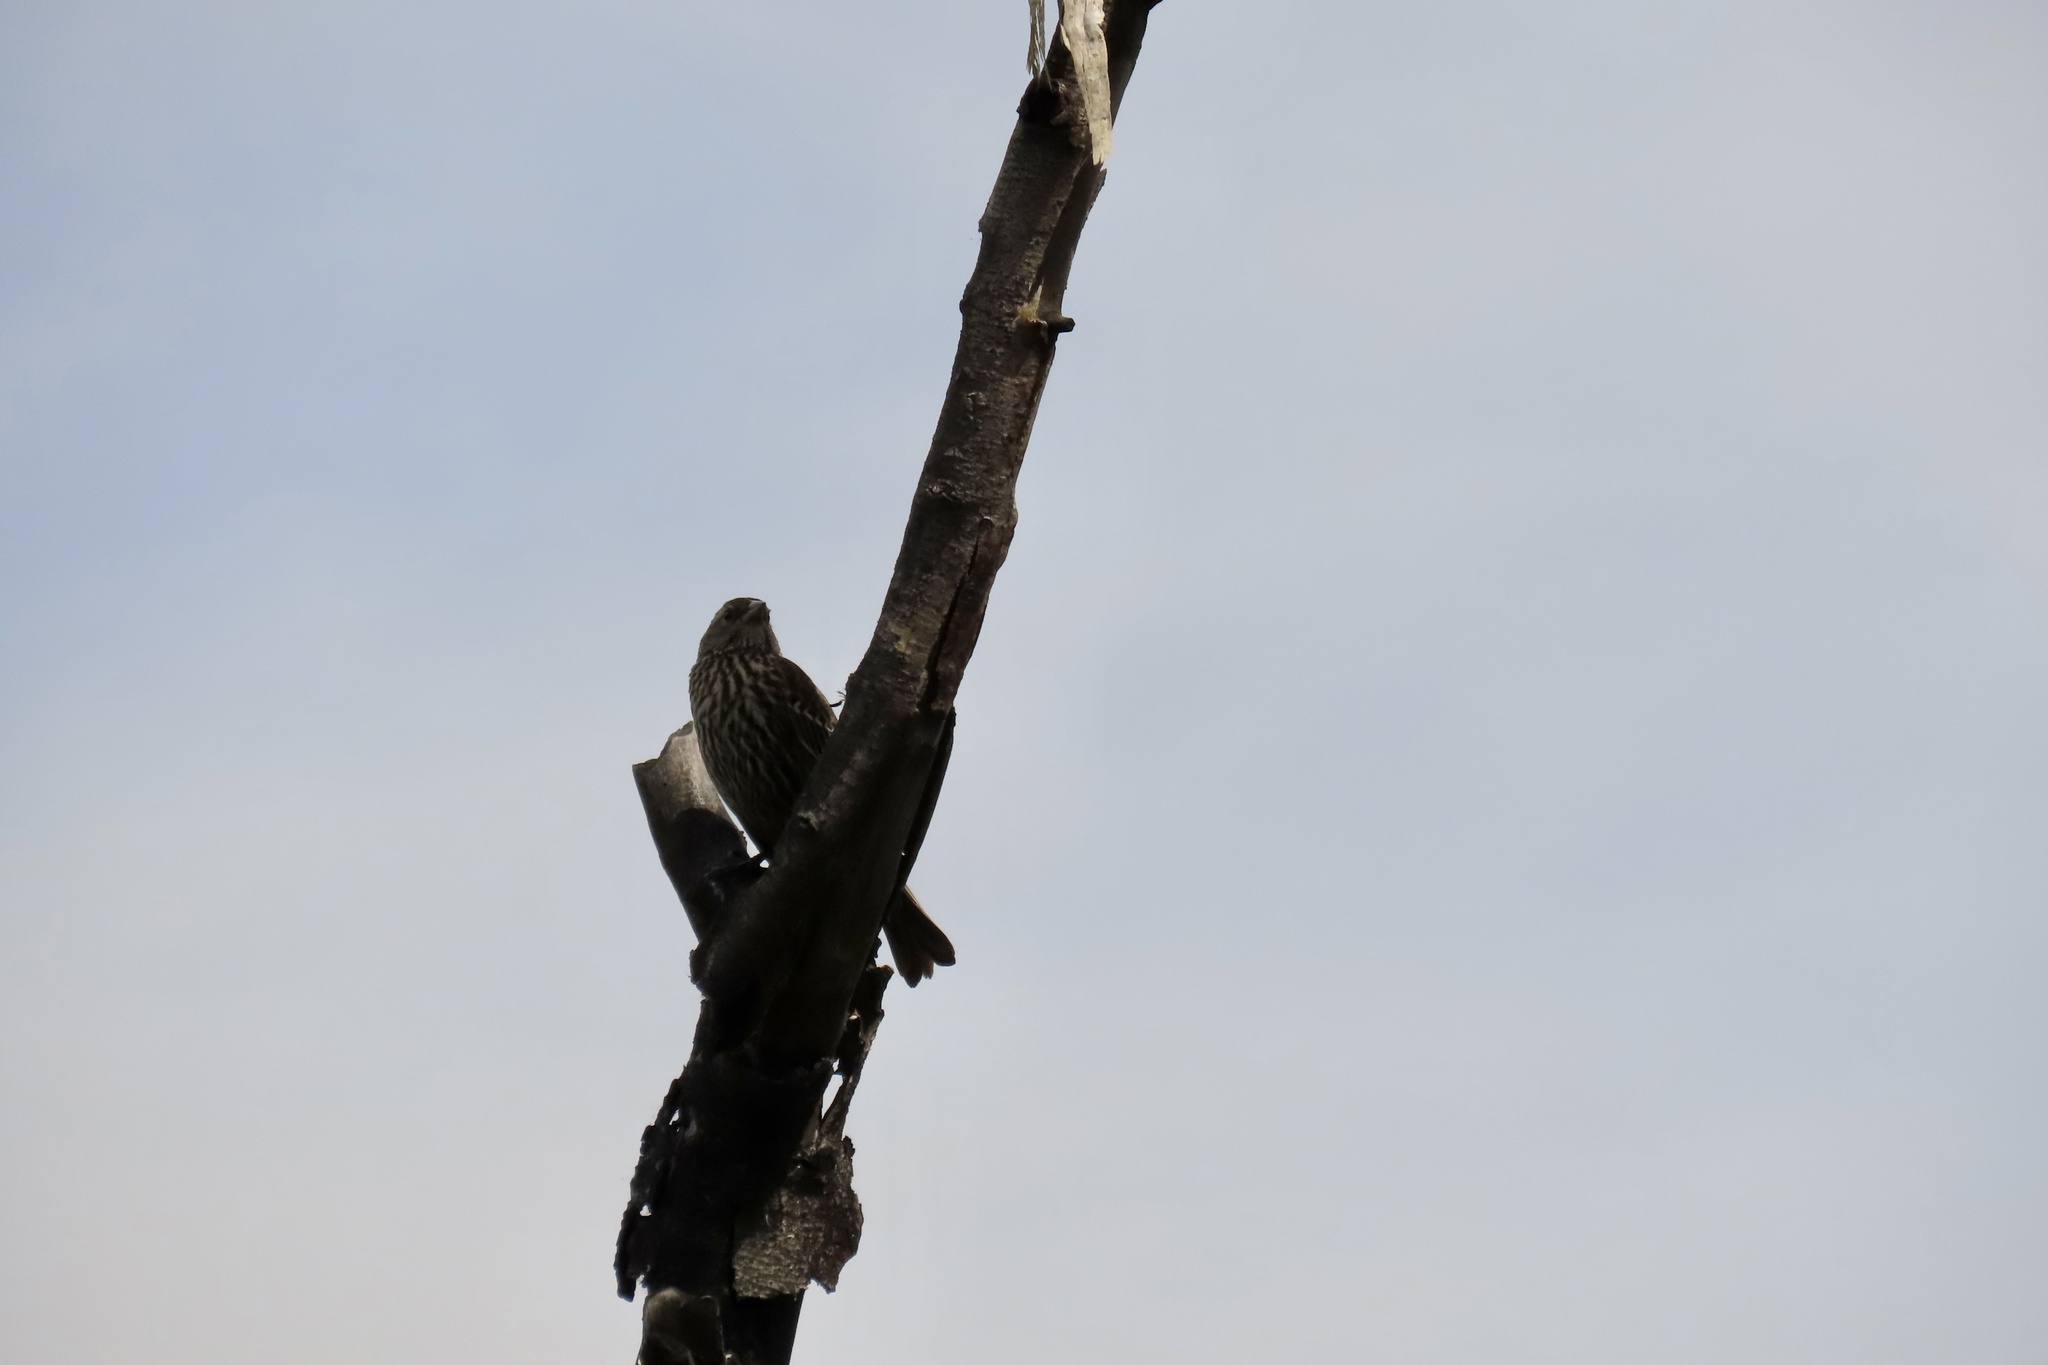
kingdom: Animalia
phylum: Chordata
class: Aves
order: Passeriformes
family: Icteridae
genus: Agelaius
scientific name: Agelaius phoeniceus
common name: Red-winged blackbird
